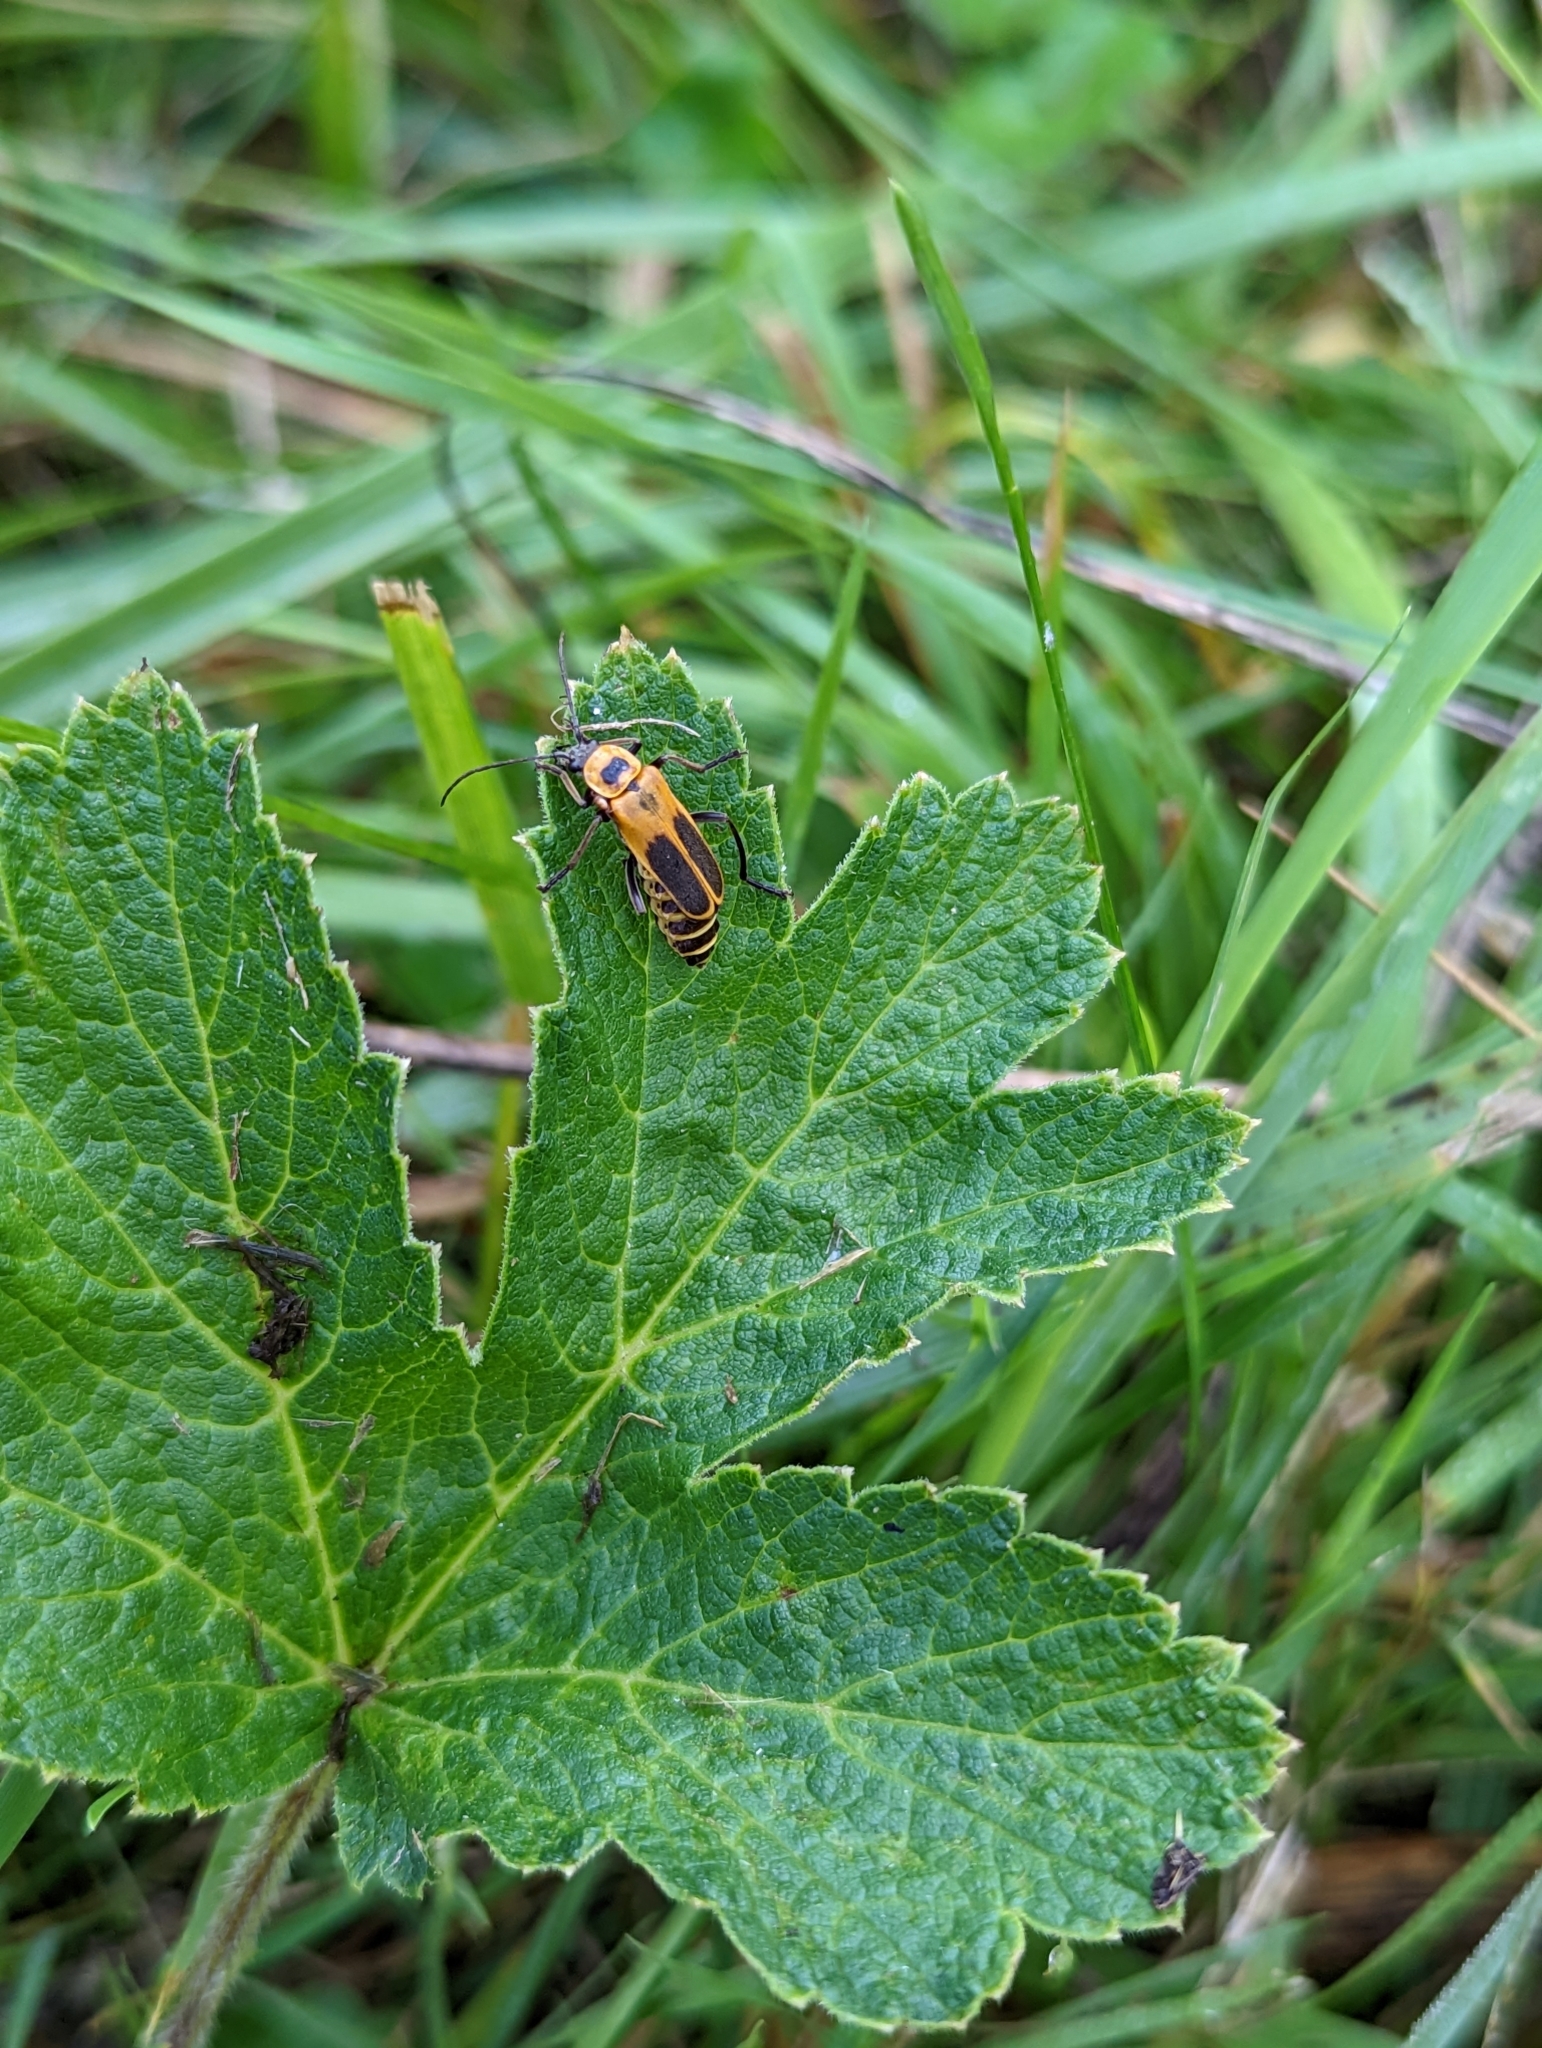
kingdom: Animalia
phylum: Arthropoda
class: Insecta
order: Coleoptera
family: Cantharidae
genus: Chauliognathus
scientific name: Chauliognathus pensylvanicus
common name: Goldenrod soldier beetle
